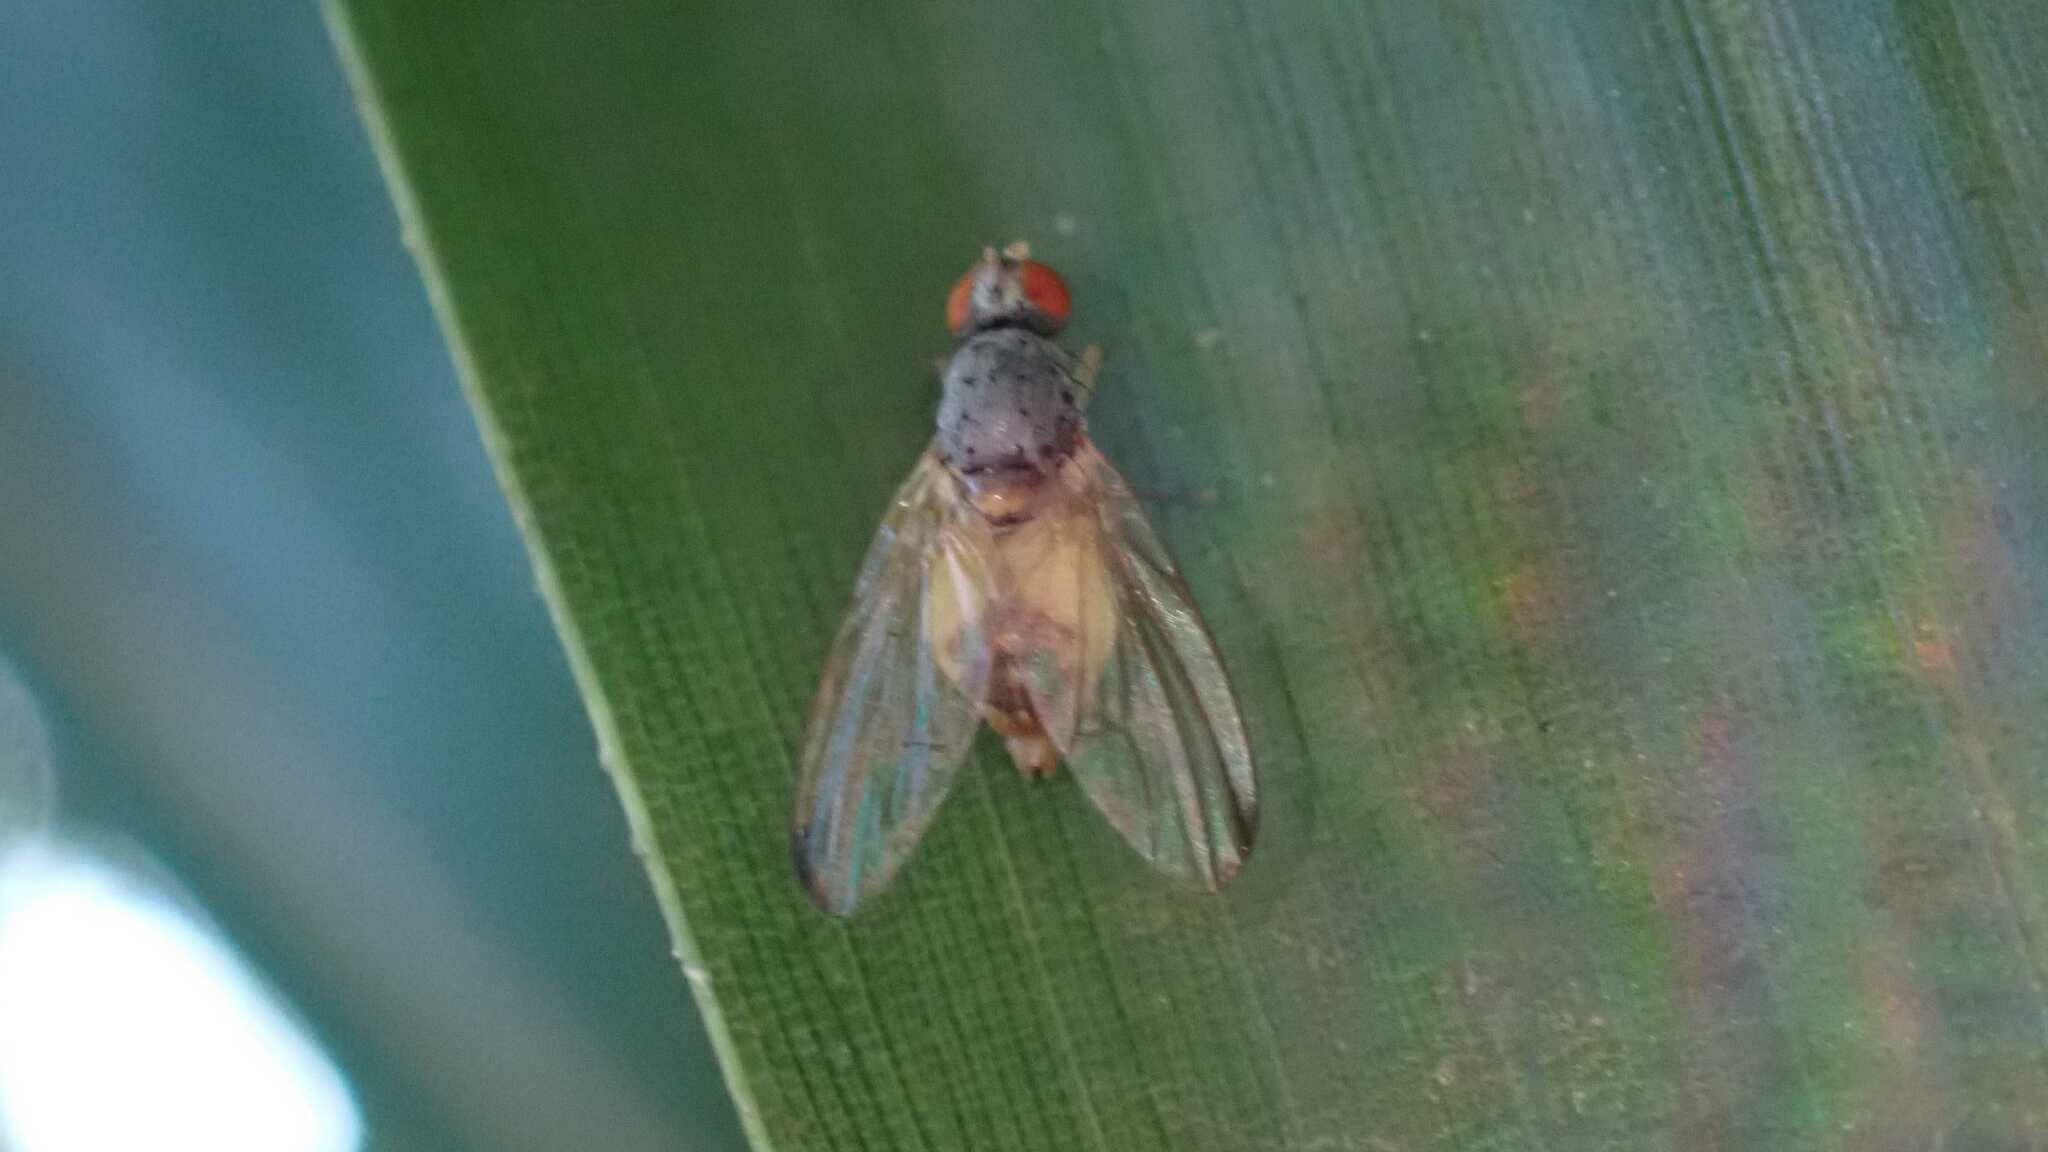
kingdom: Animalia
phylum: Arthropoda
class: Insecta
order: Diptera
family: Pallopteridae
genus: Palloptera
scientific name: Palloptera
